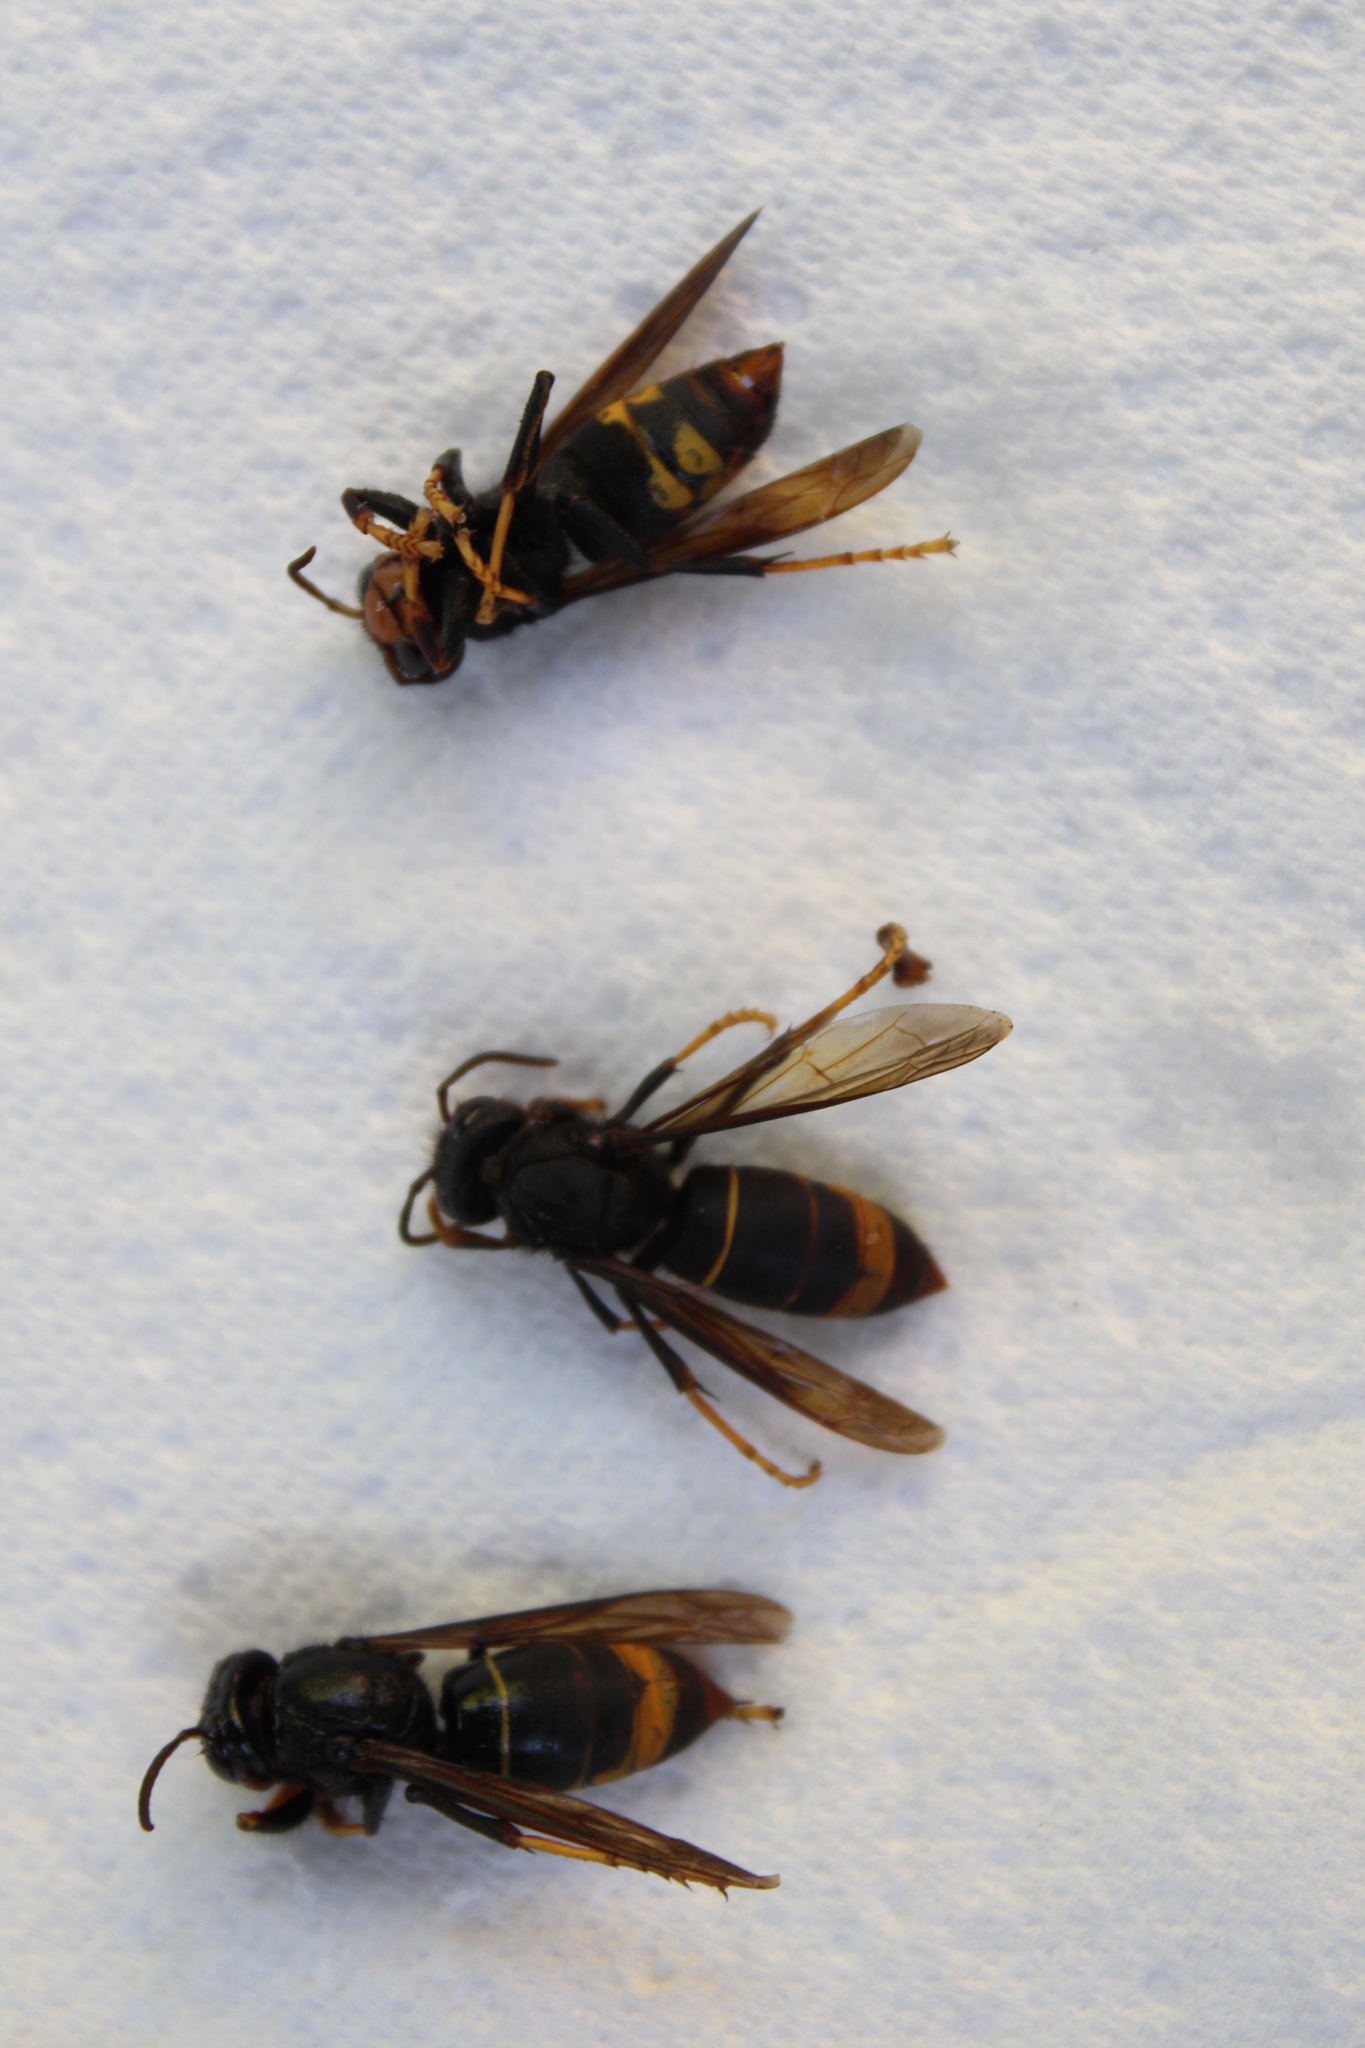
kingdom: Animalia
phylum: Arthropoda
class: Insecta
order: Hymenoptera
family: Vespidae
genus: Vespa
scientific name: Vespa velutina
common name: Asian hornet
